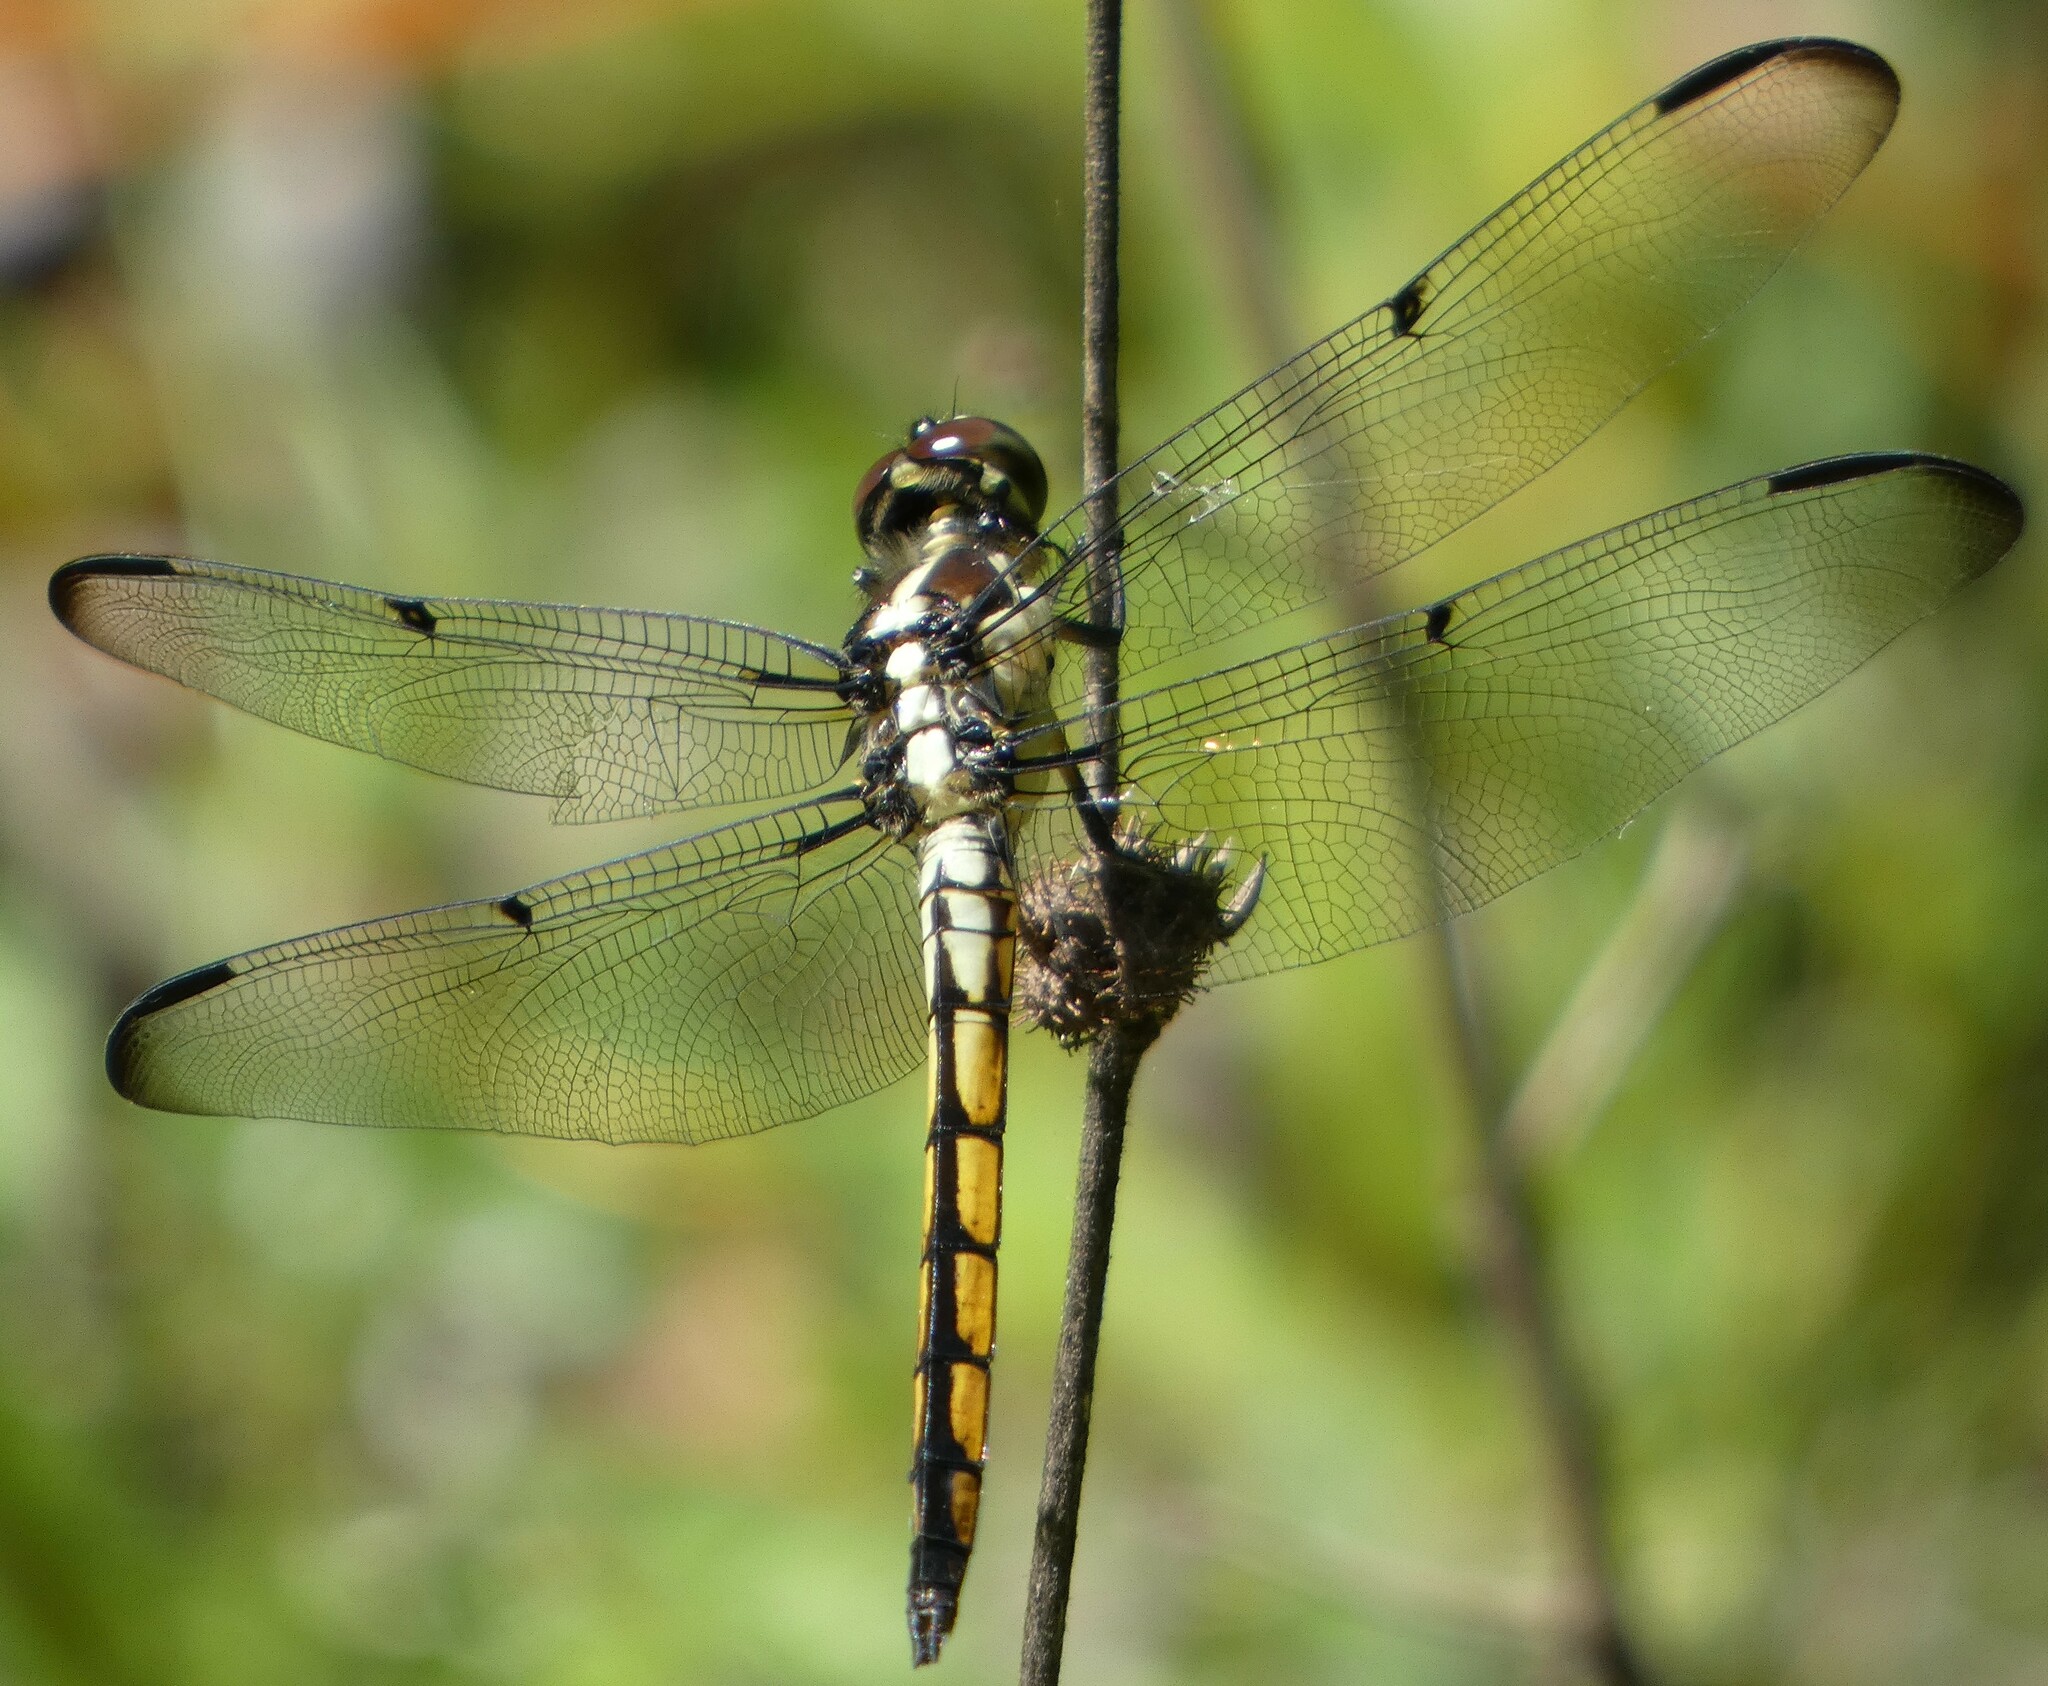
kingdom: Animalia
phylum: Arthropoda
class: Insecta
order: Odonata
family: Libellulidae
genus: Libellula
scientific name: Libellula vibrans
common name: Great blue skimmer
